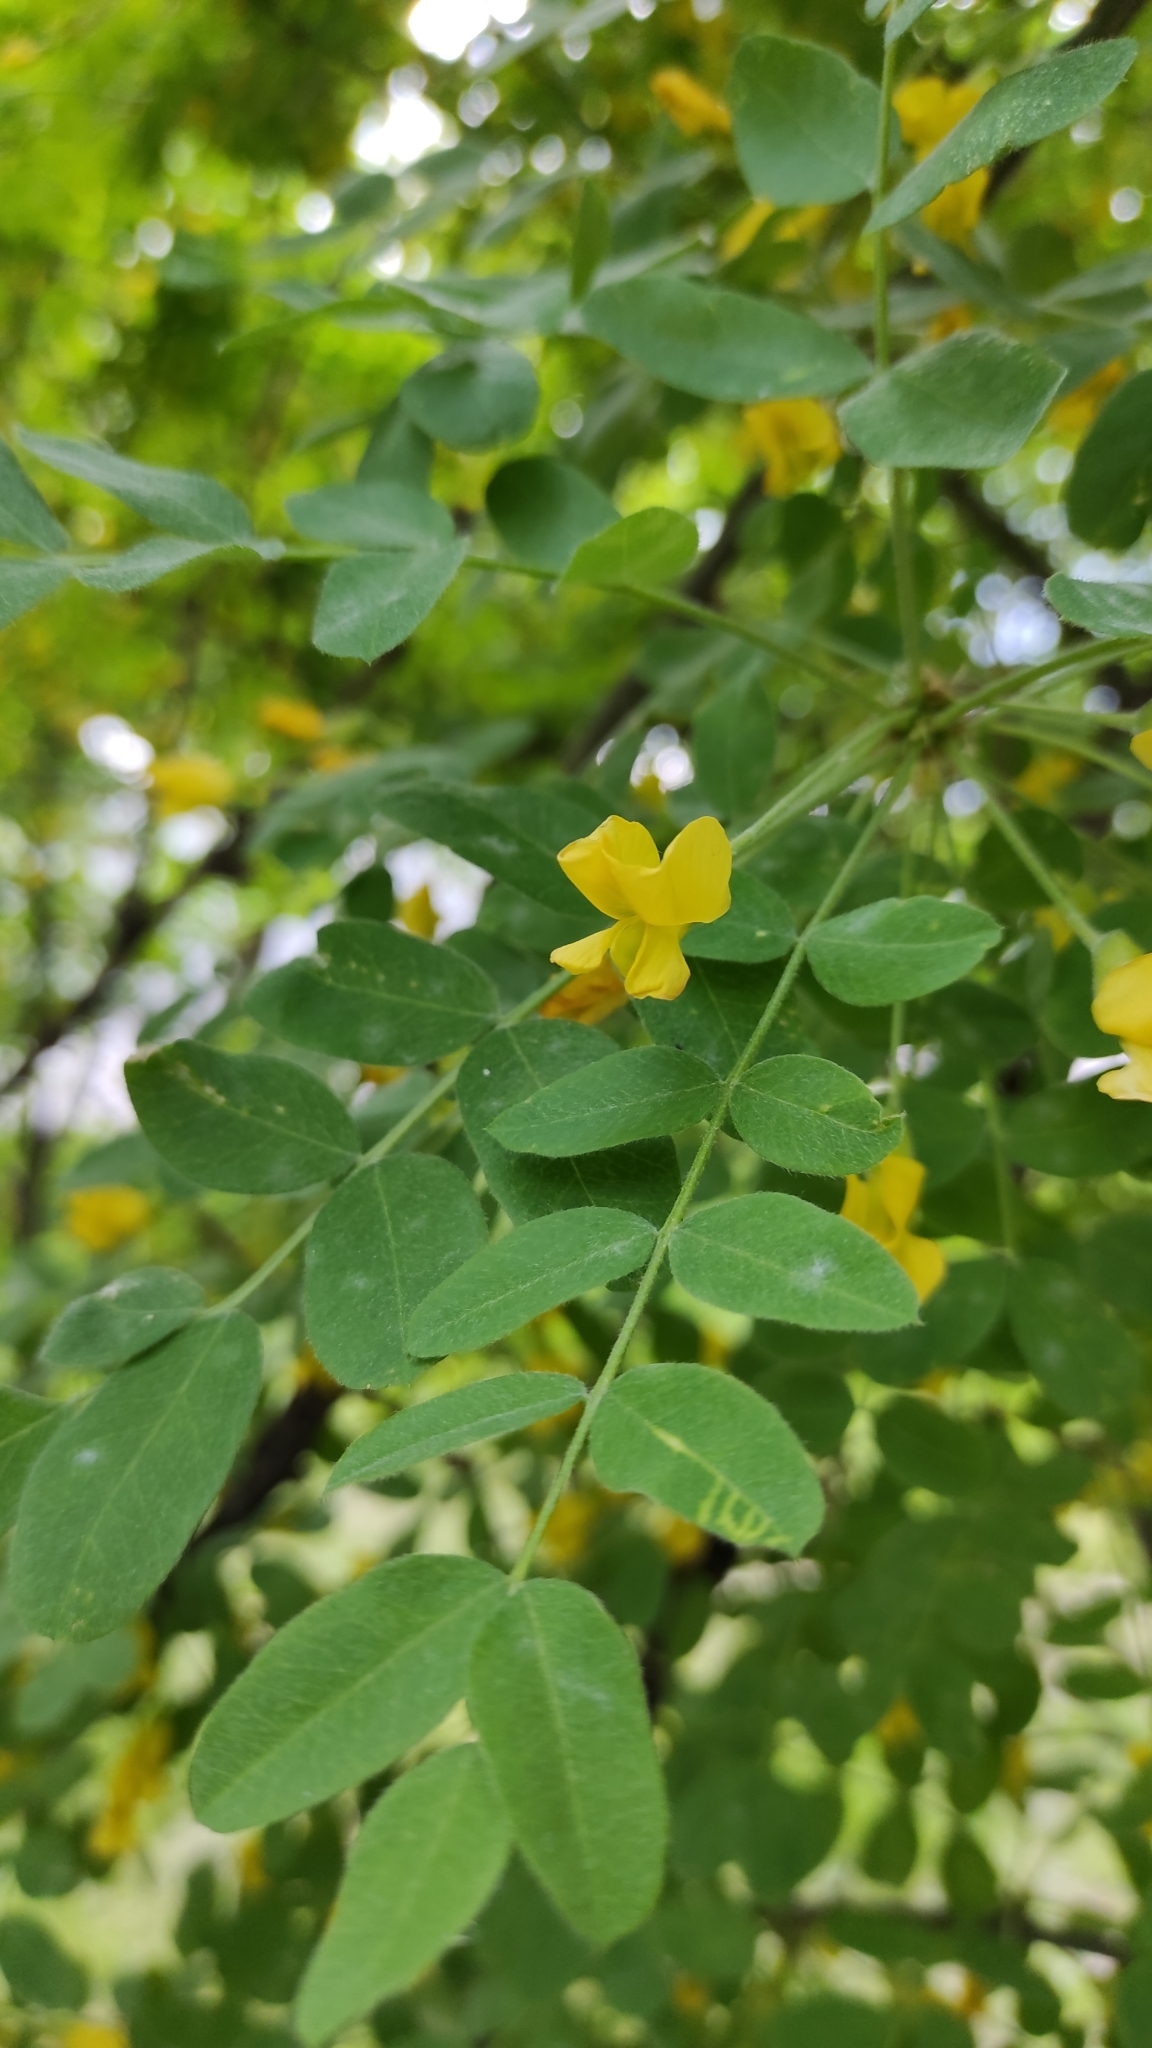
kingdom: Plantae
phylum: Tracheophyta
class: Magnoliopsida
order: Fabales
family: Fabaceae
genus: Caragana
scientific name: Caragana arborescens
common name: Siberian peashrub
